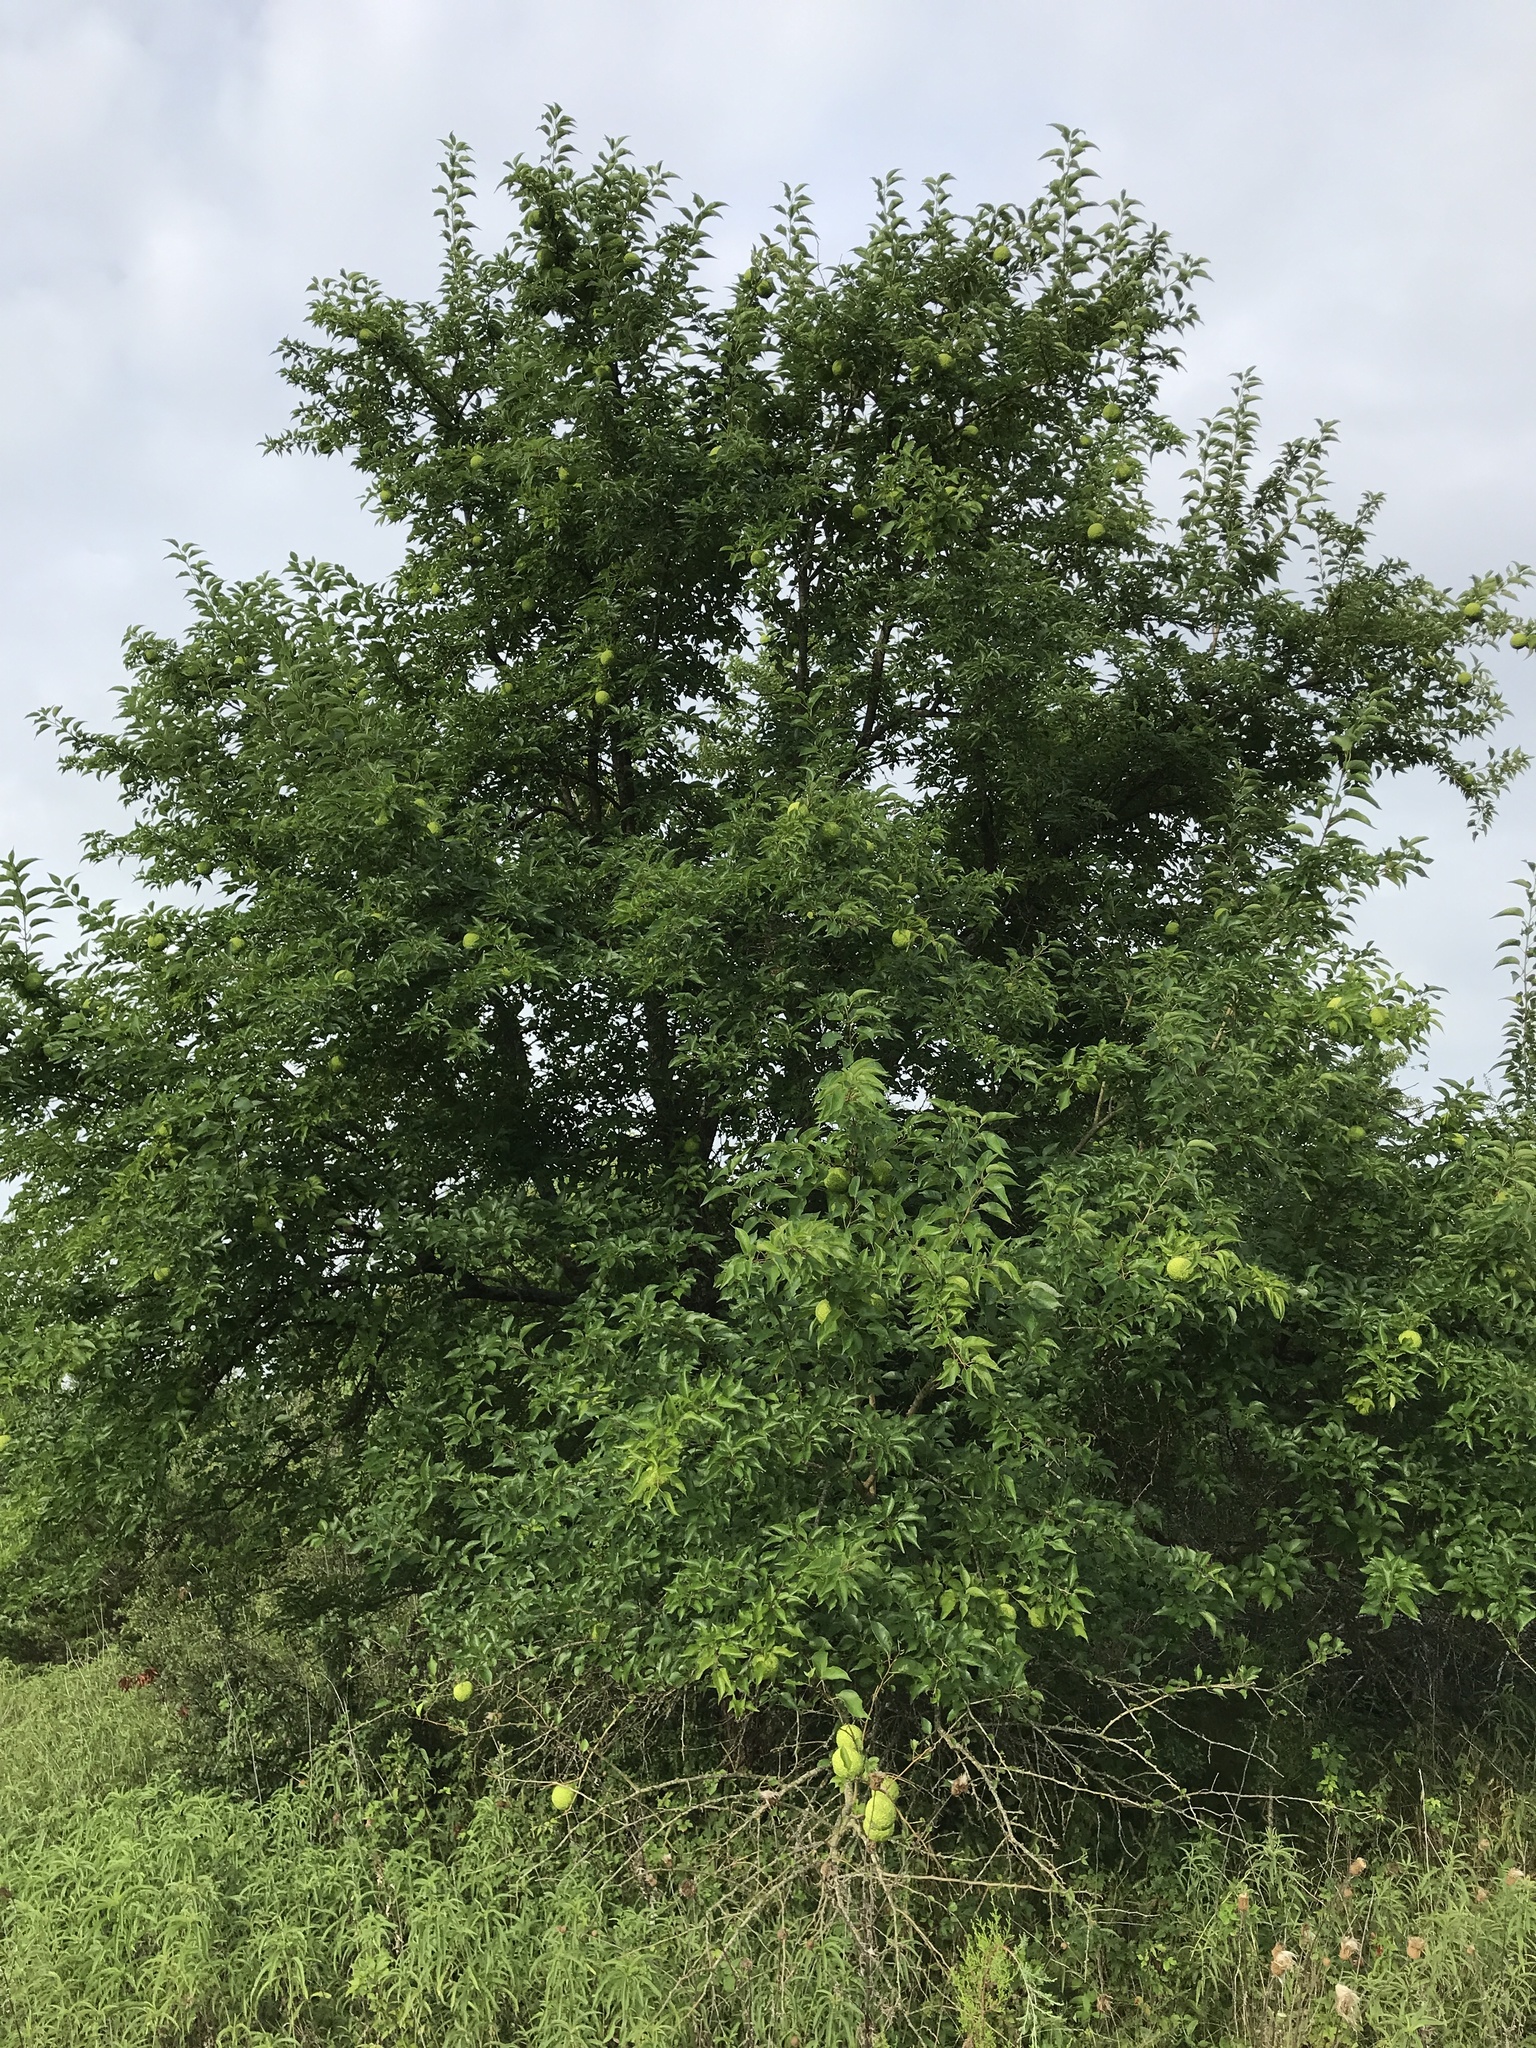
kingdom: Plantae
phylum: Tracheophyta
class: Magnoliopsida
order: Rosales
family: Moraceae
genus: Maclura
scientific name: Maclura pomifera
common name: Osage-orange
